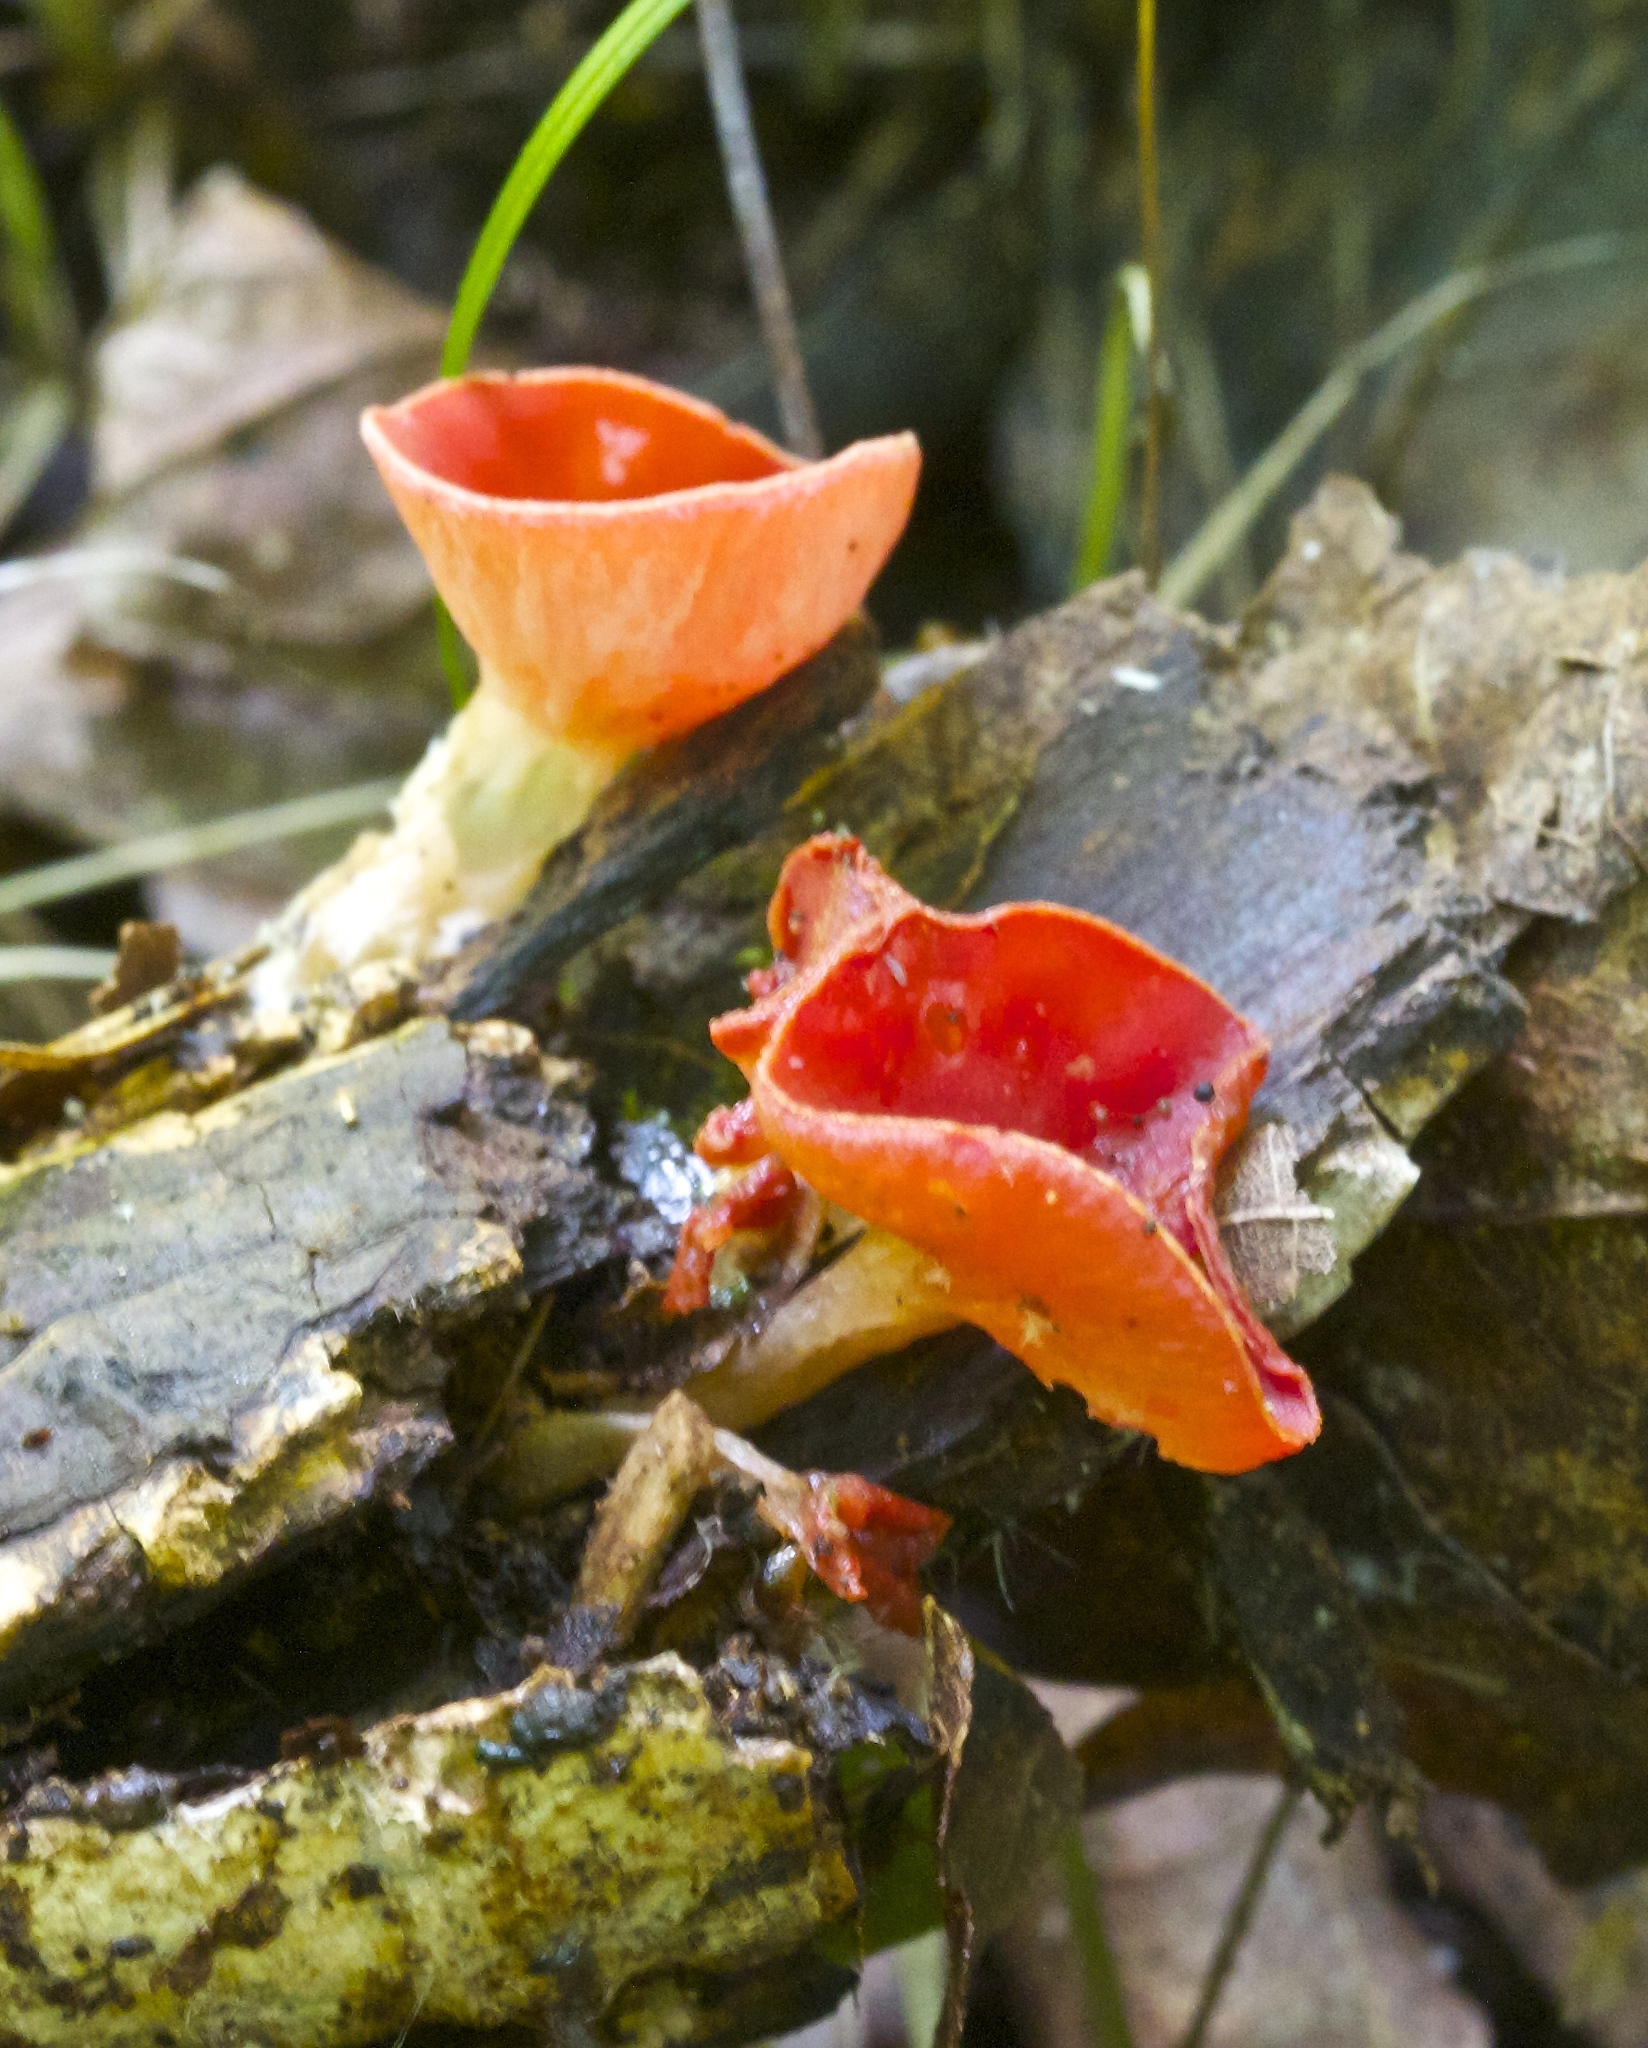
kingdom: Fungi
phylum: Ascomycota
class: Pezizomycetes
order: Pezizales
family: Sarcoscyphaceae
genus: Sarcoscypha
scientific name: Sarcoscypha occidentalis
